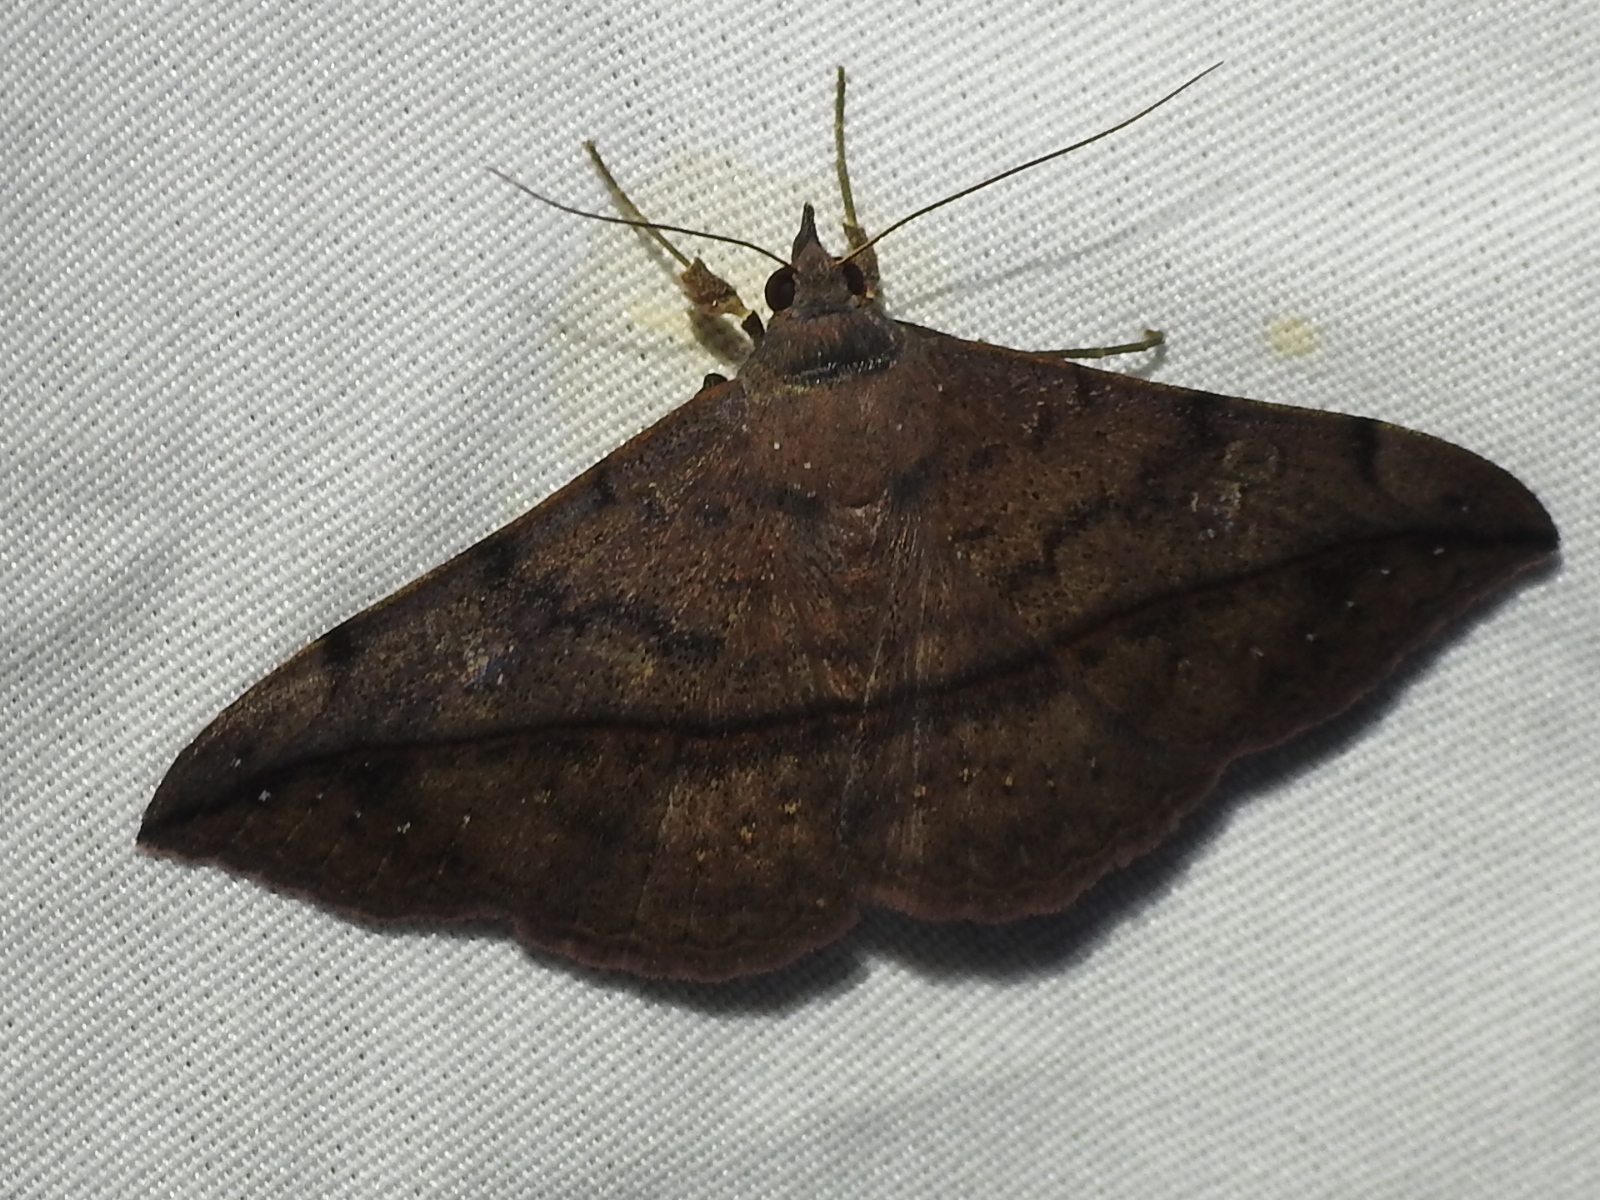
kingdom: Animalia
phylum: Arthropoda
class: Insecta
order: Lepidoptera
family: Erebidae
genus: Anticarsia
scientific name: Anticarsia gemmatalis
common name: Cutworm moth
